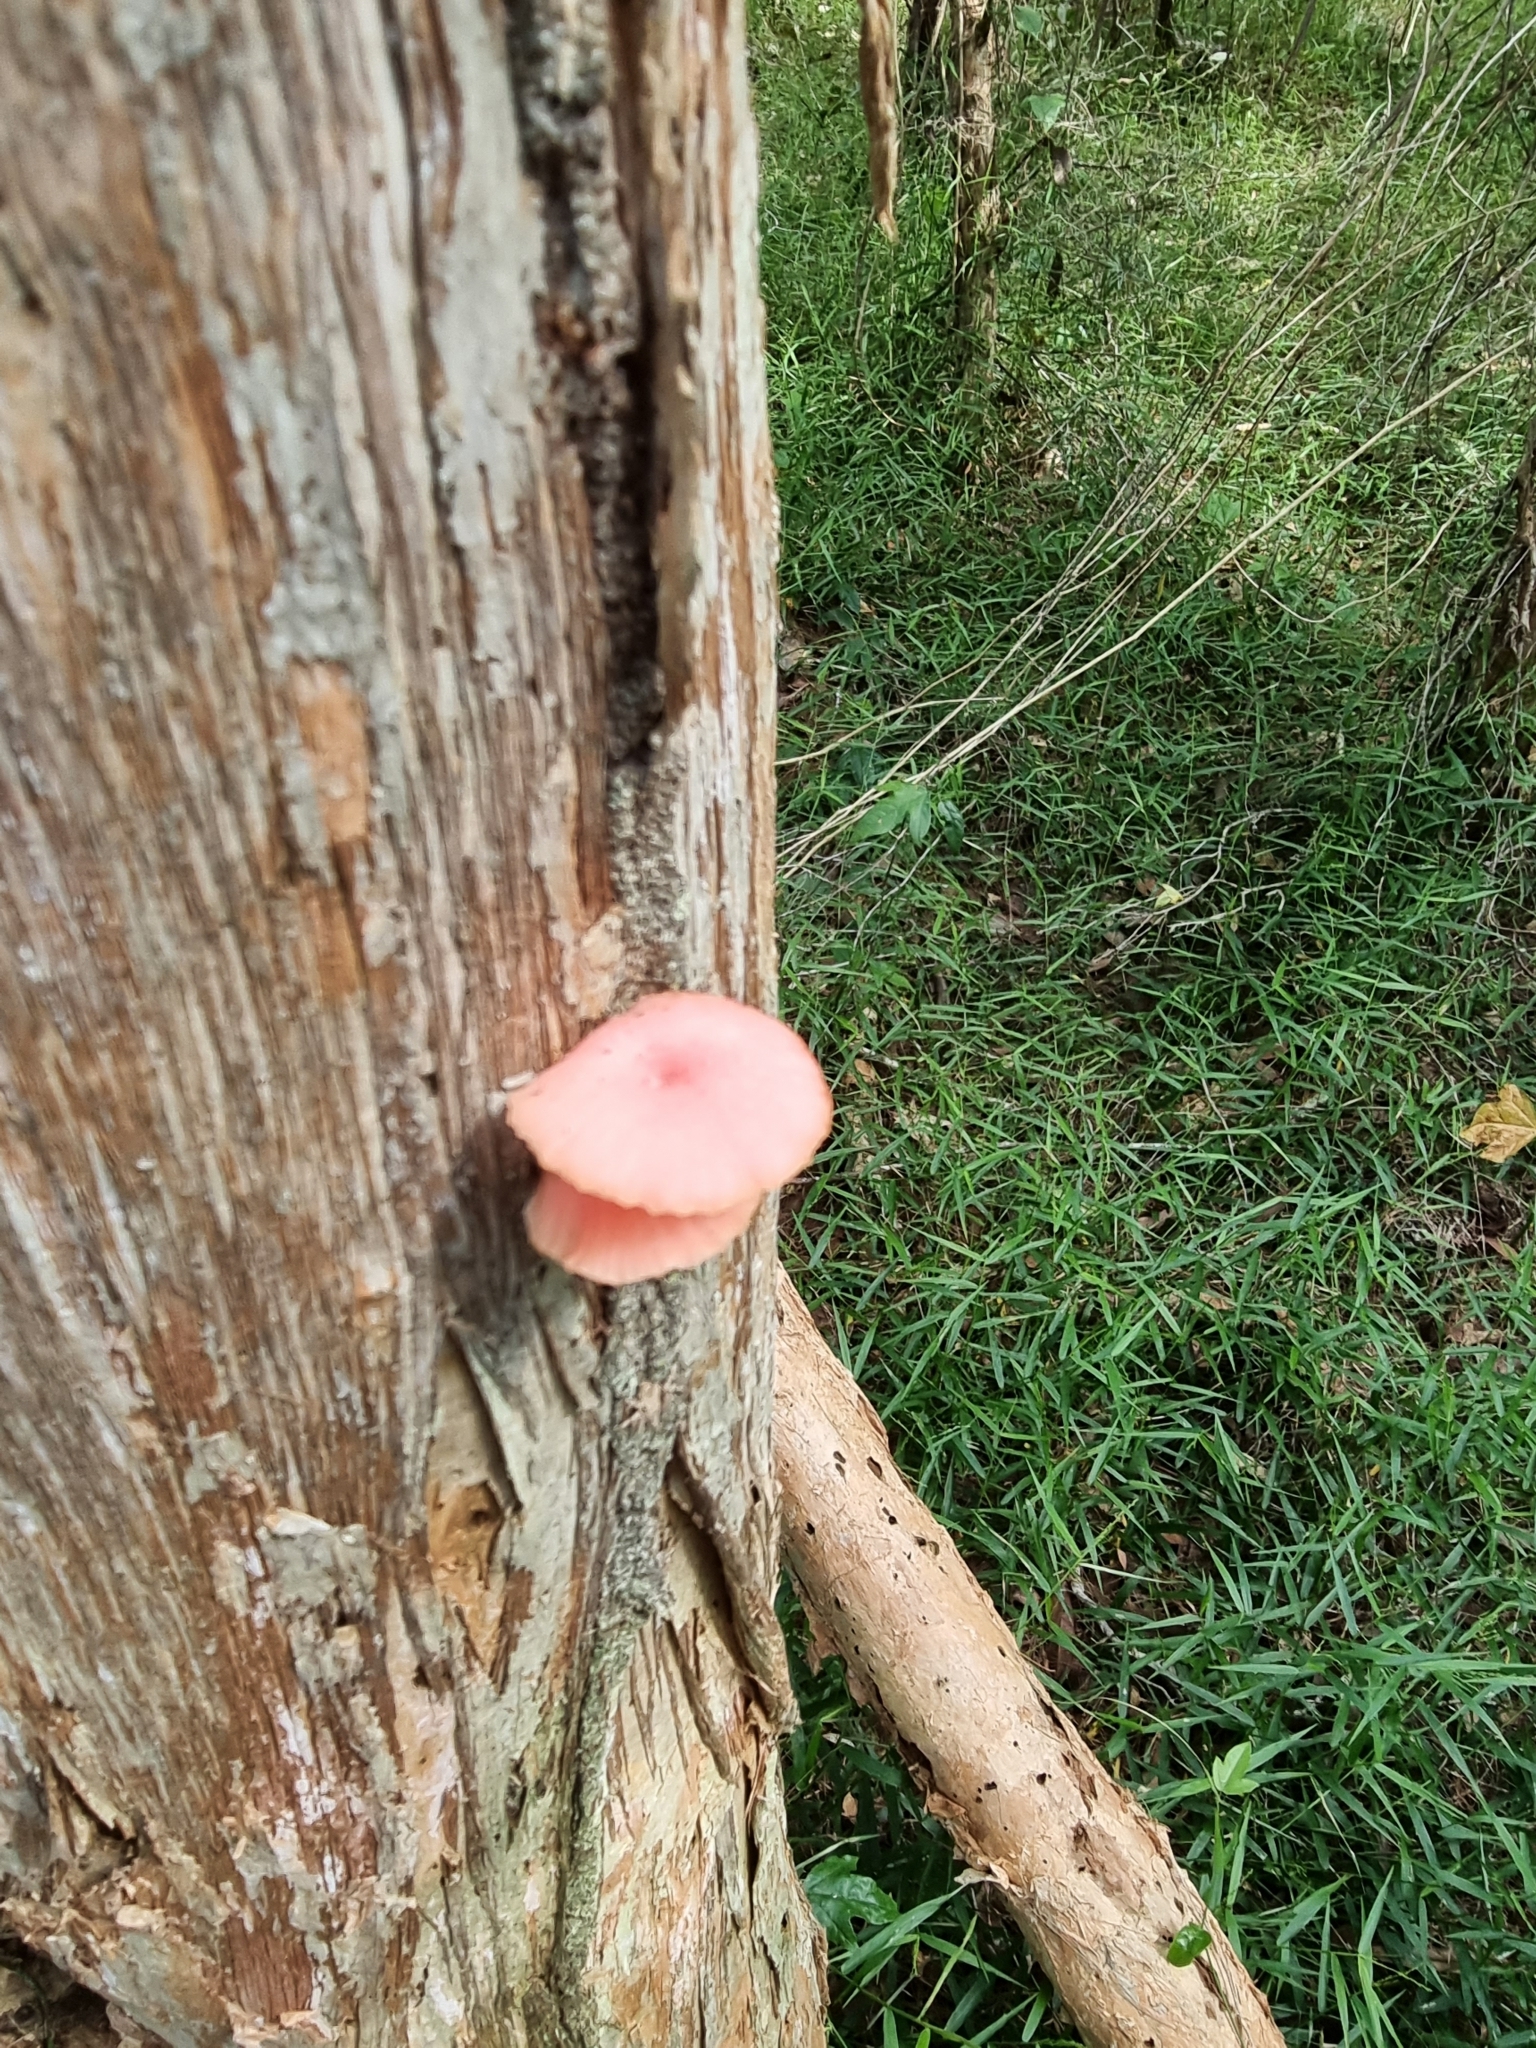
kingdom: Fungi
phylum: Basidiomycota
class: Agaricomycetes
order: Agaricales
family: Mycenaceae
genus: Mycena
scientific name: Mycena roseilignicola
